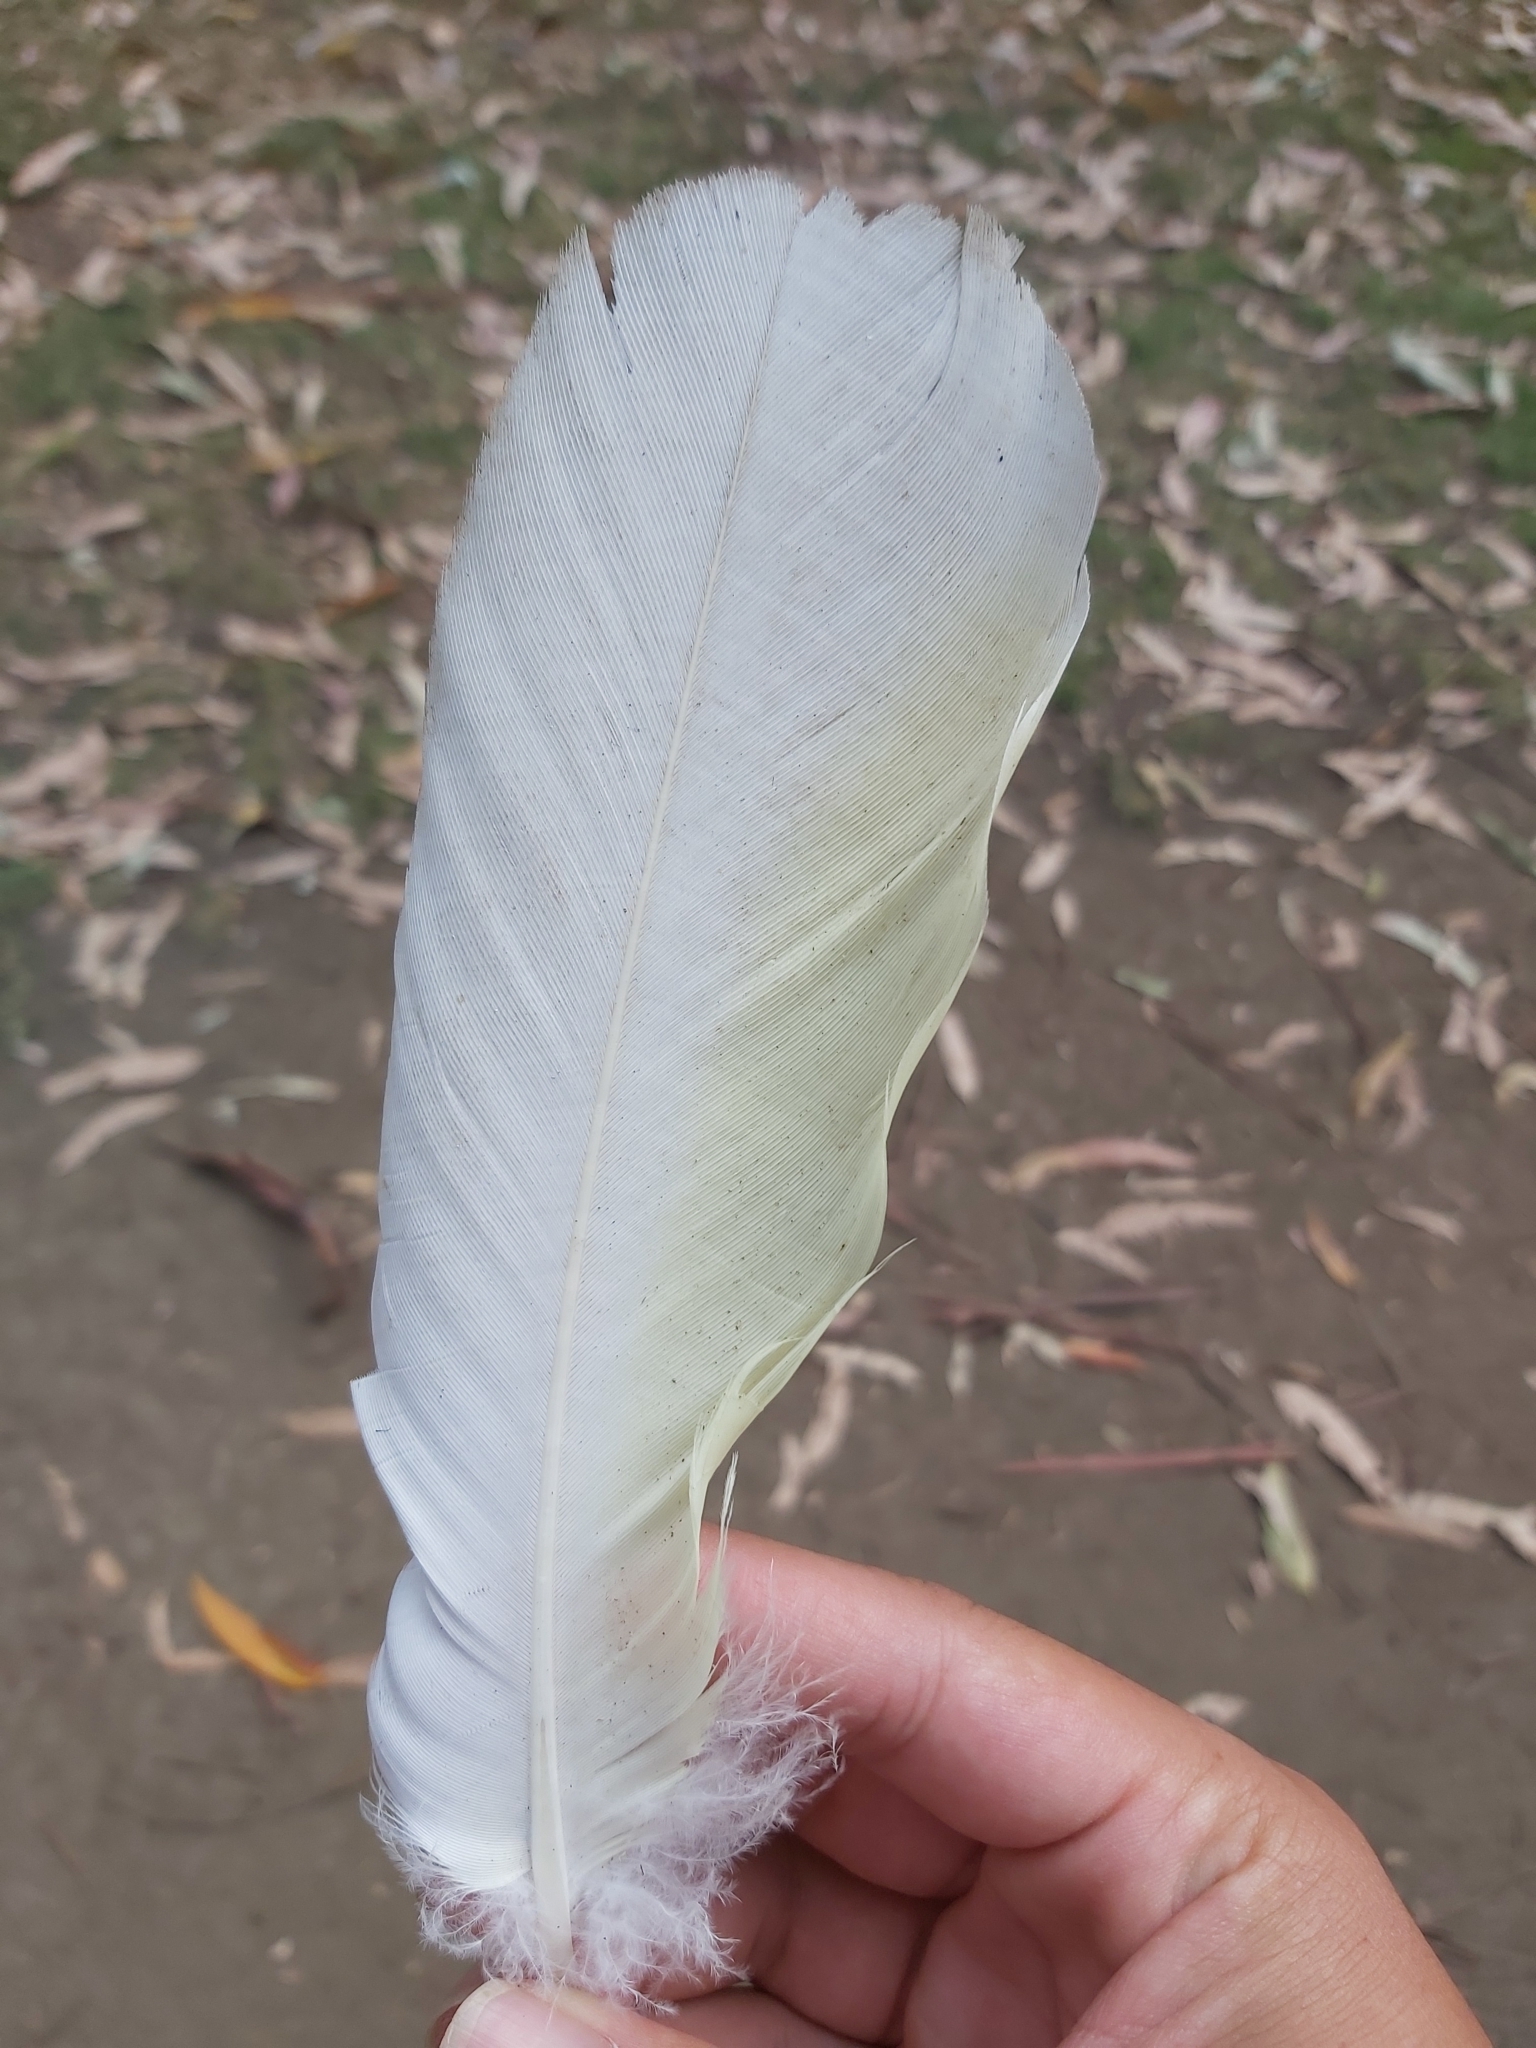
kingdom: Animalia
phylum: Chordata
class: Aves
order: Psittaciformes
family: Psittacidae
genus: Cacatua
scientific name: Cacatua galerita
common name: Sulphur-crested cockatoo
